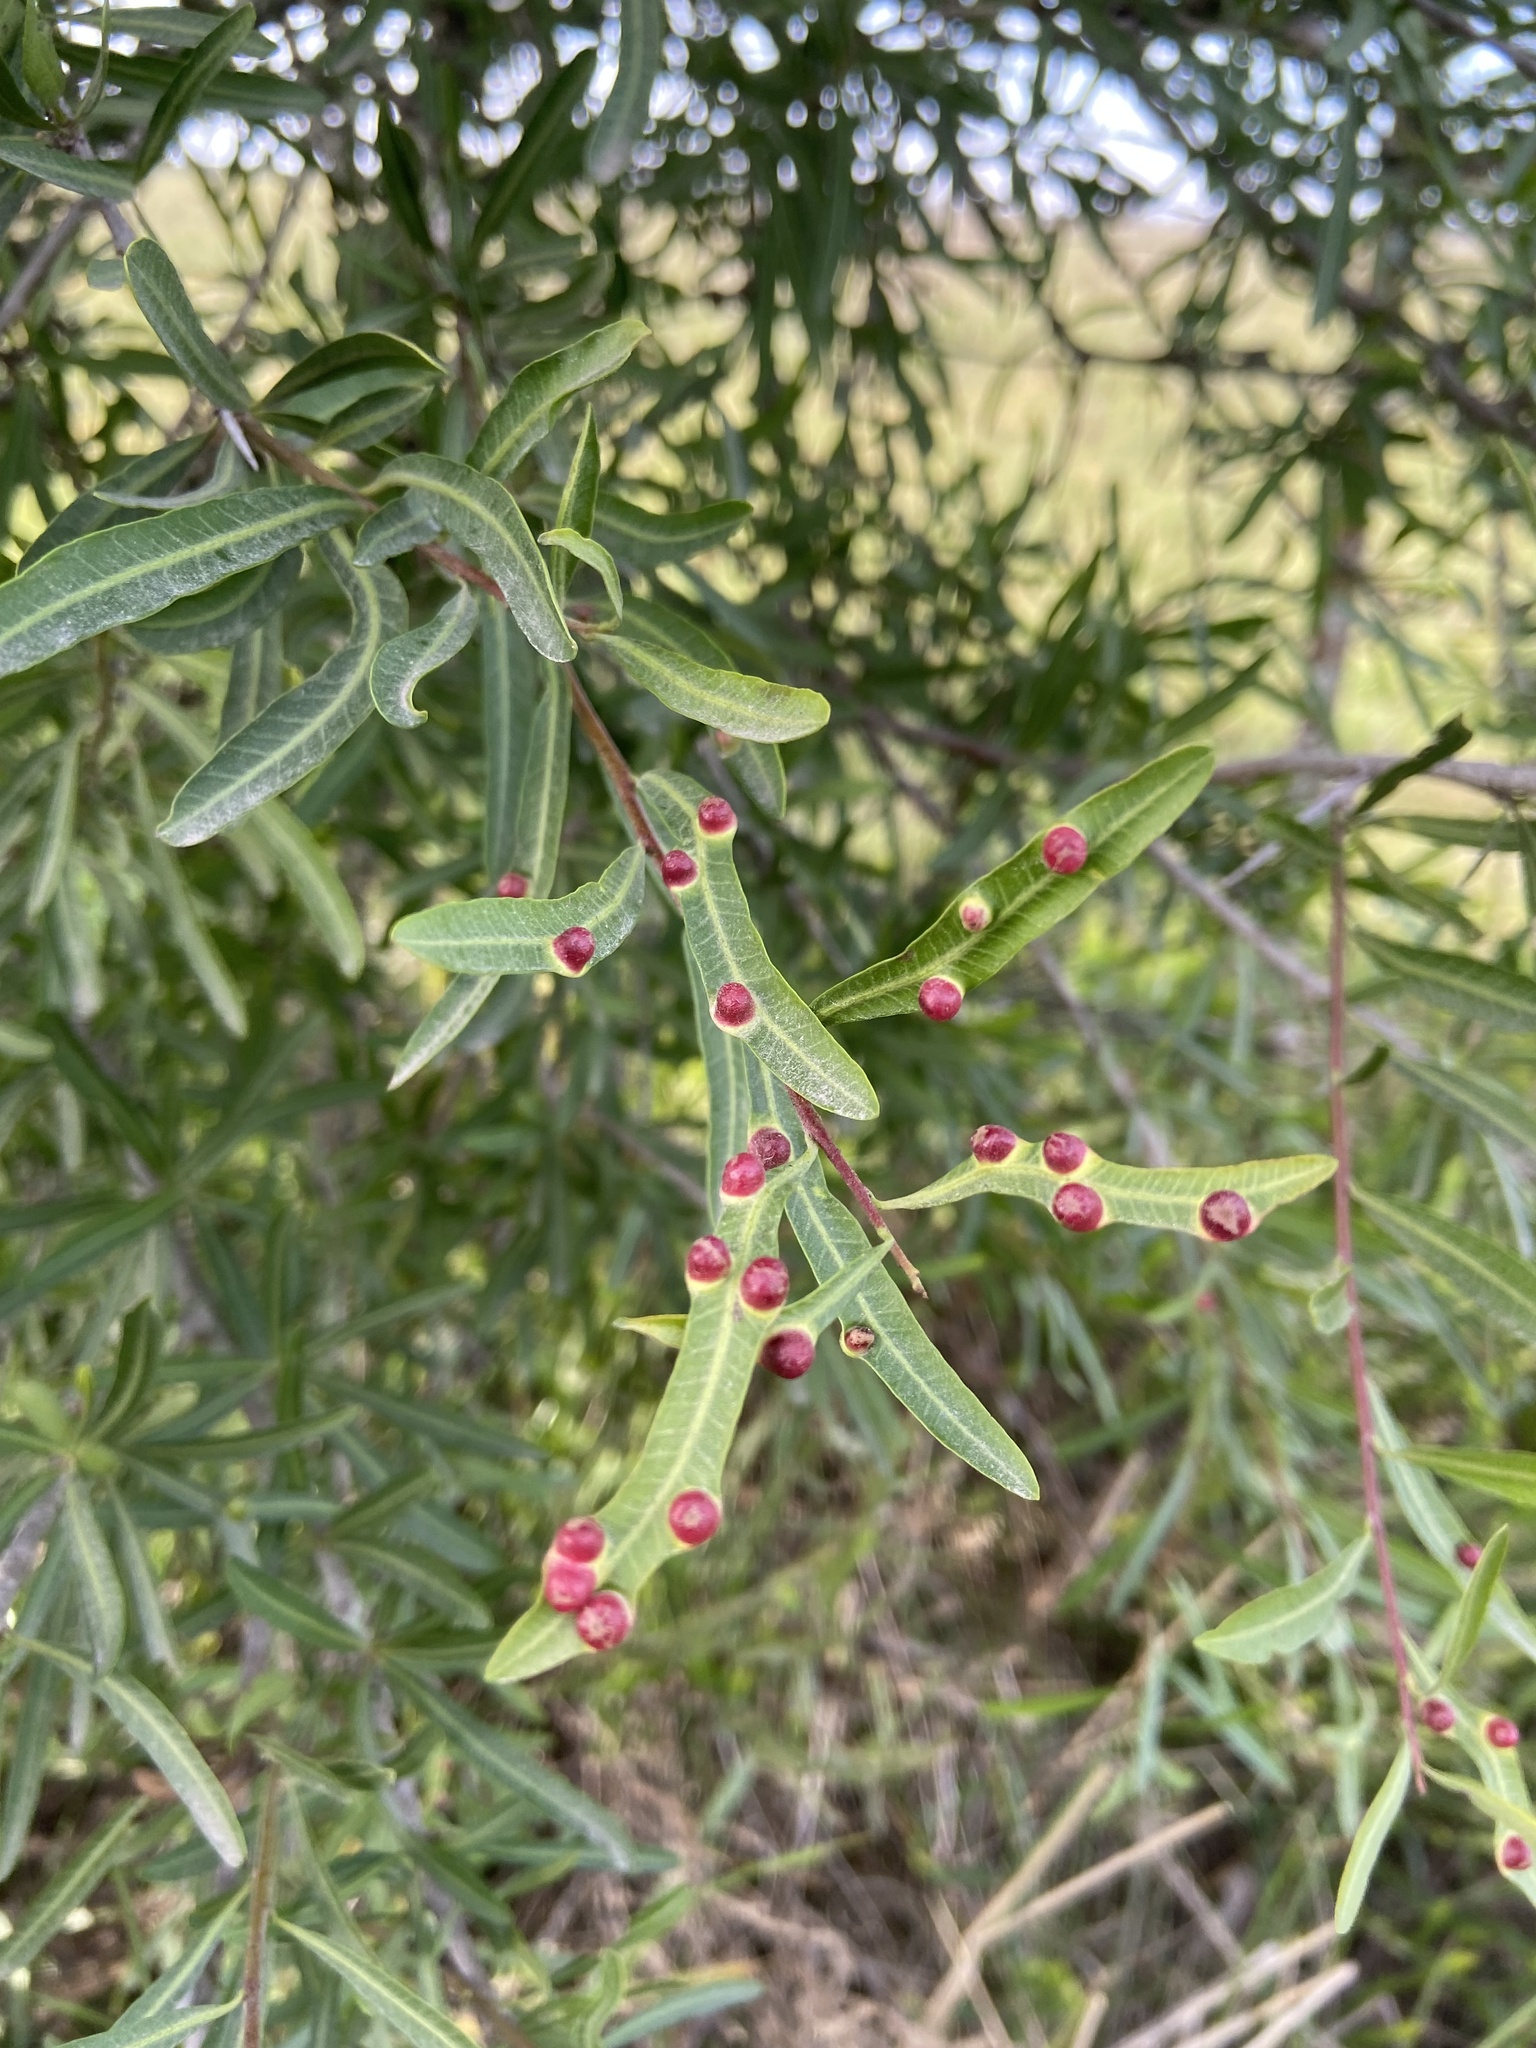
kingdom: Plantae
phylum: Tracheophyta
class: Magnoliopsida
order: Sapindales
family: Anacardiaceae
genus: Schinus
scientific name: Schinus longifolia
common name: Longleaf peppertree
